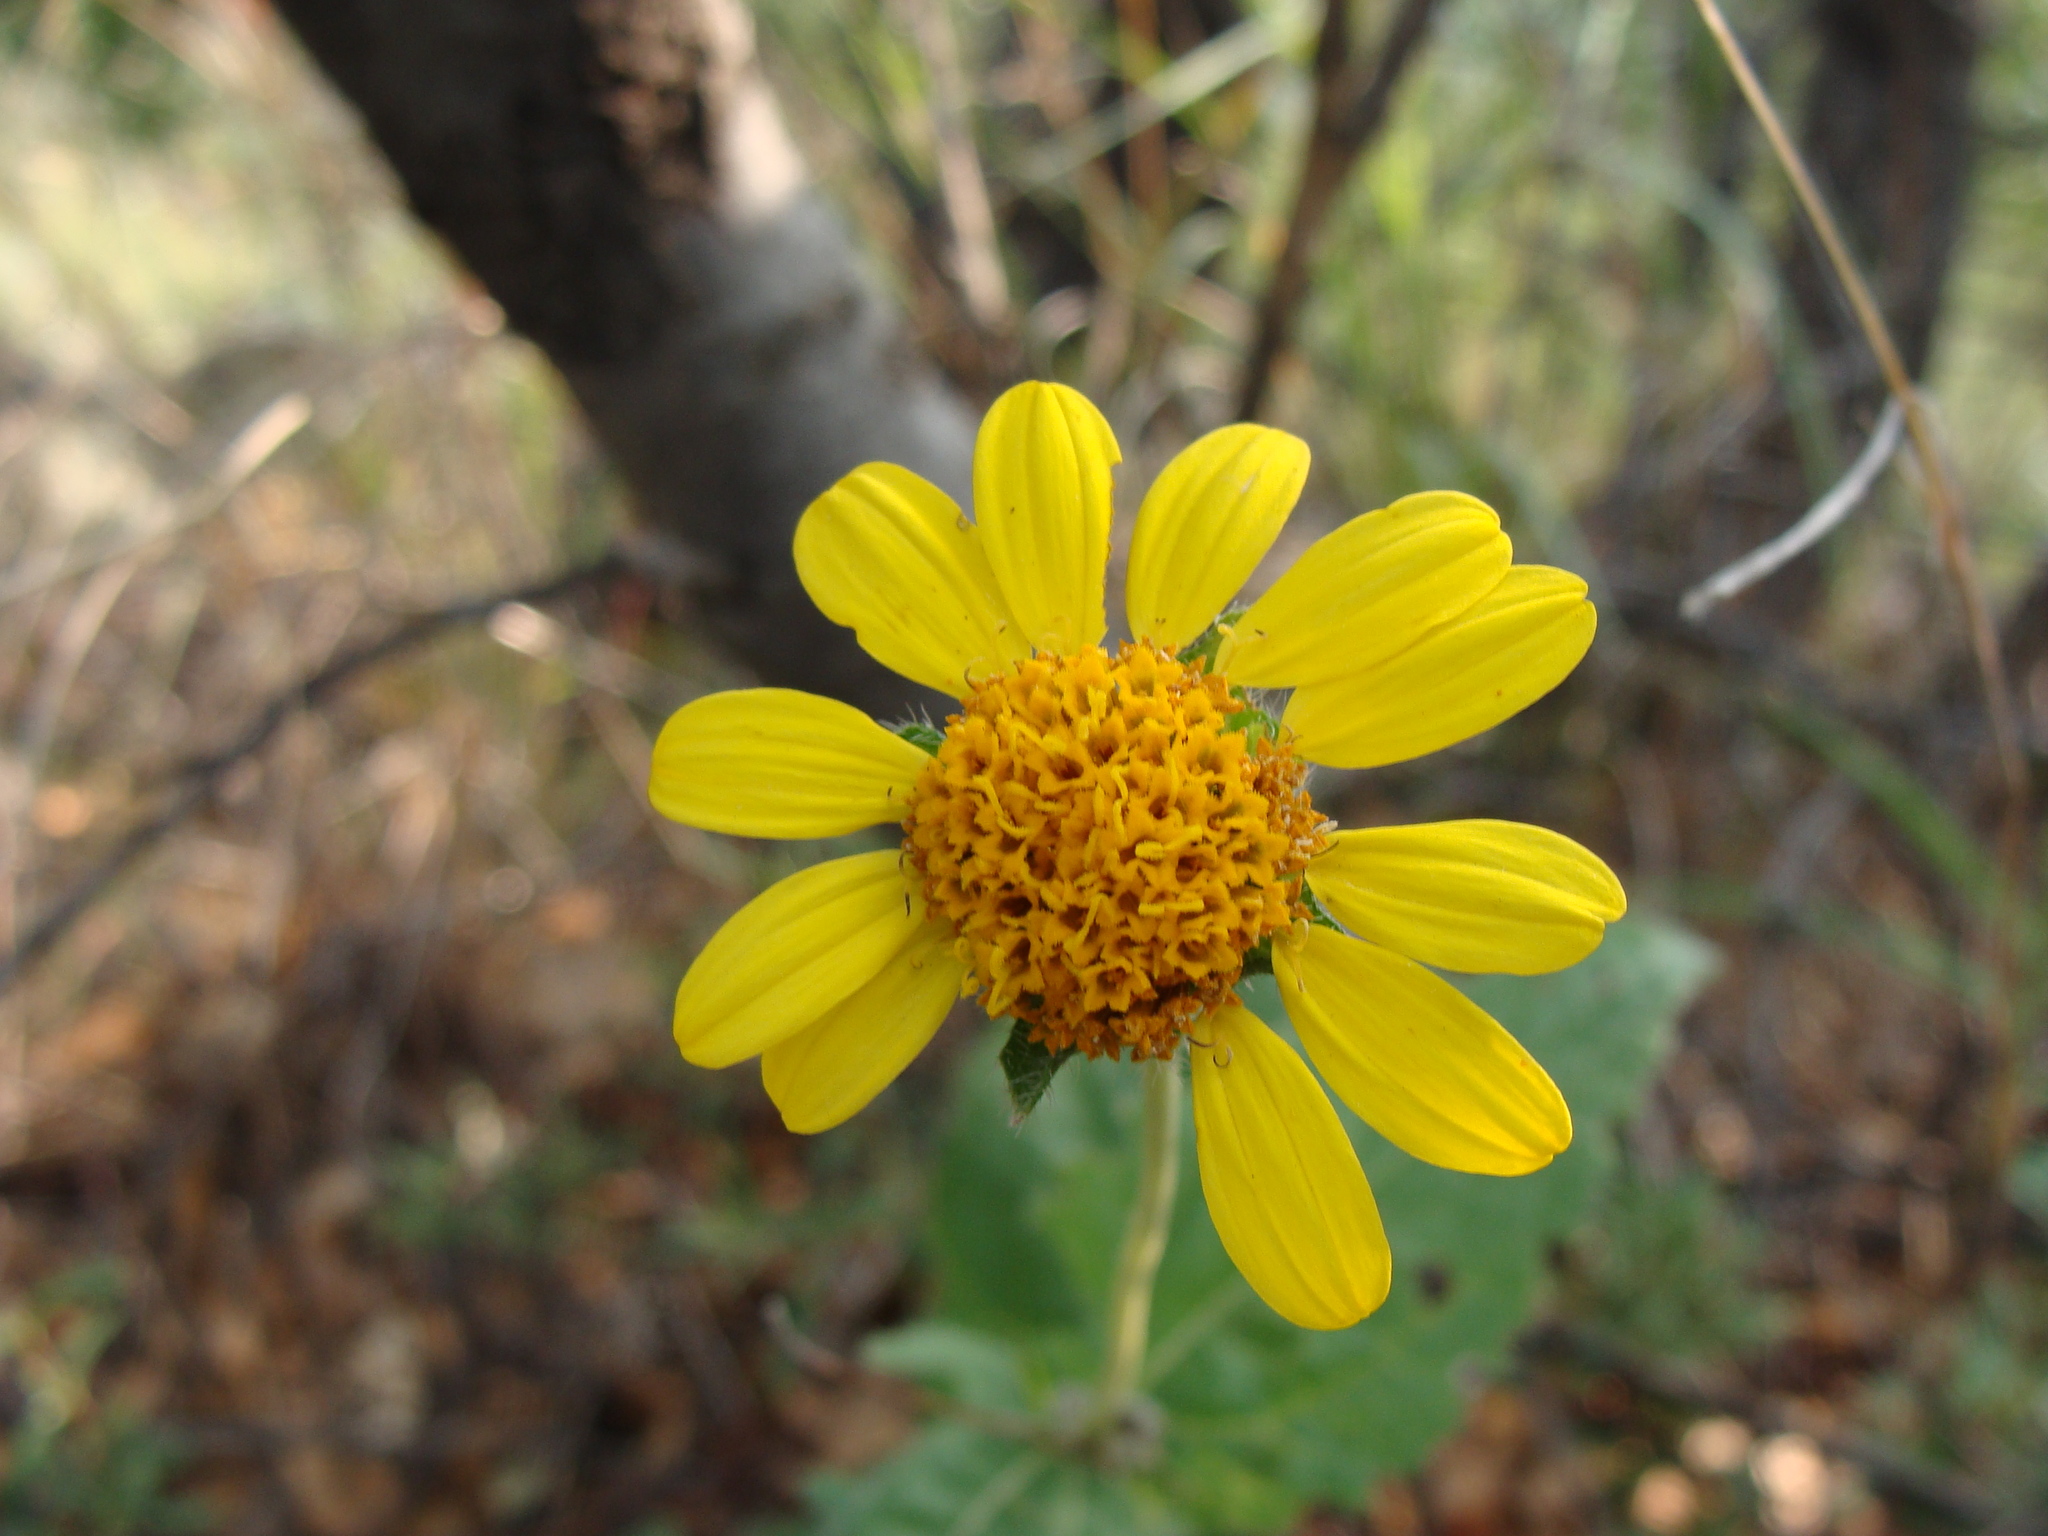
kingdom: Plantae
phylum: Tracheophyta
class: Magnoliopsida
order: Asterales
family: Asteraceae
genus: Lasianthaea
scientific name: Lasianthaea podocephala
